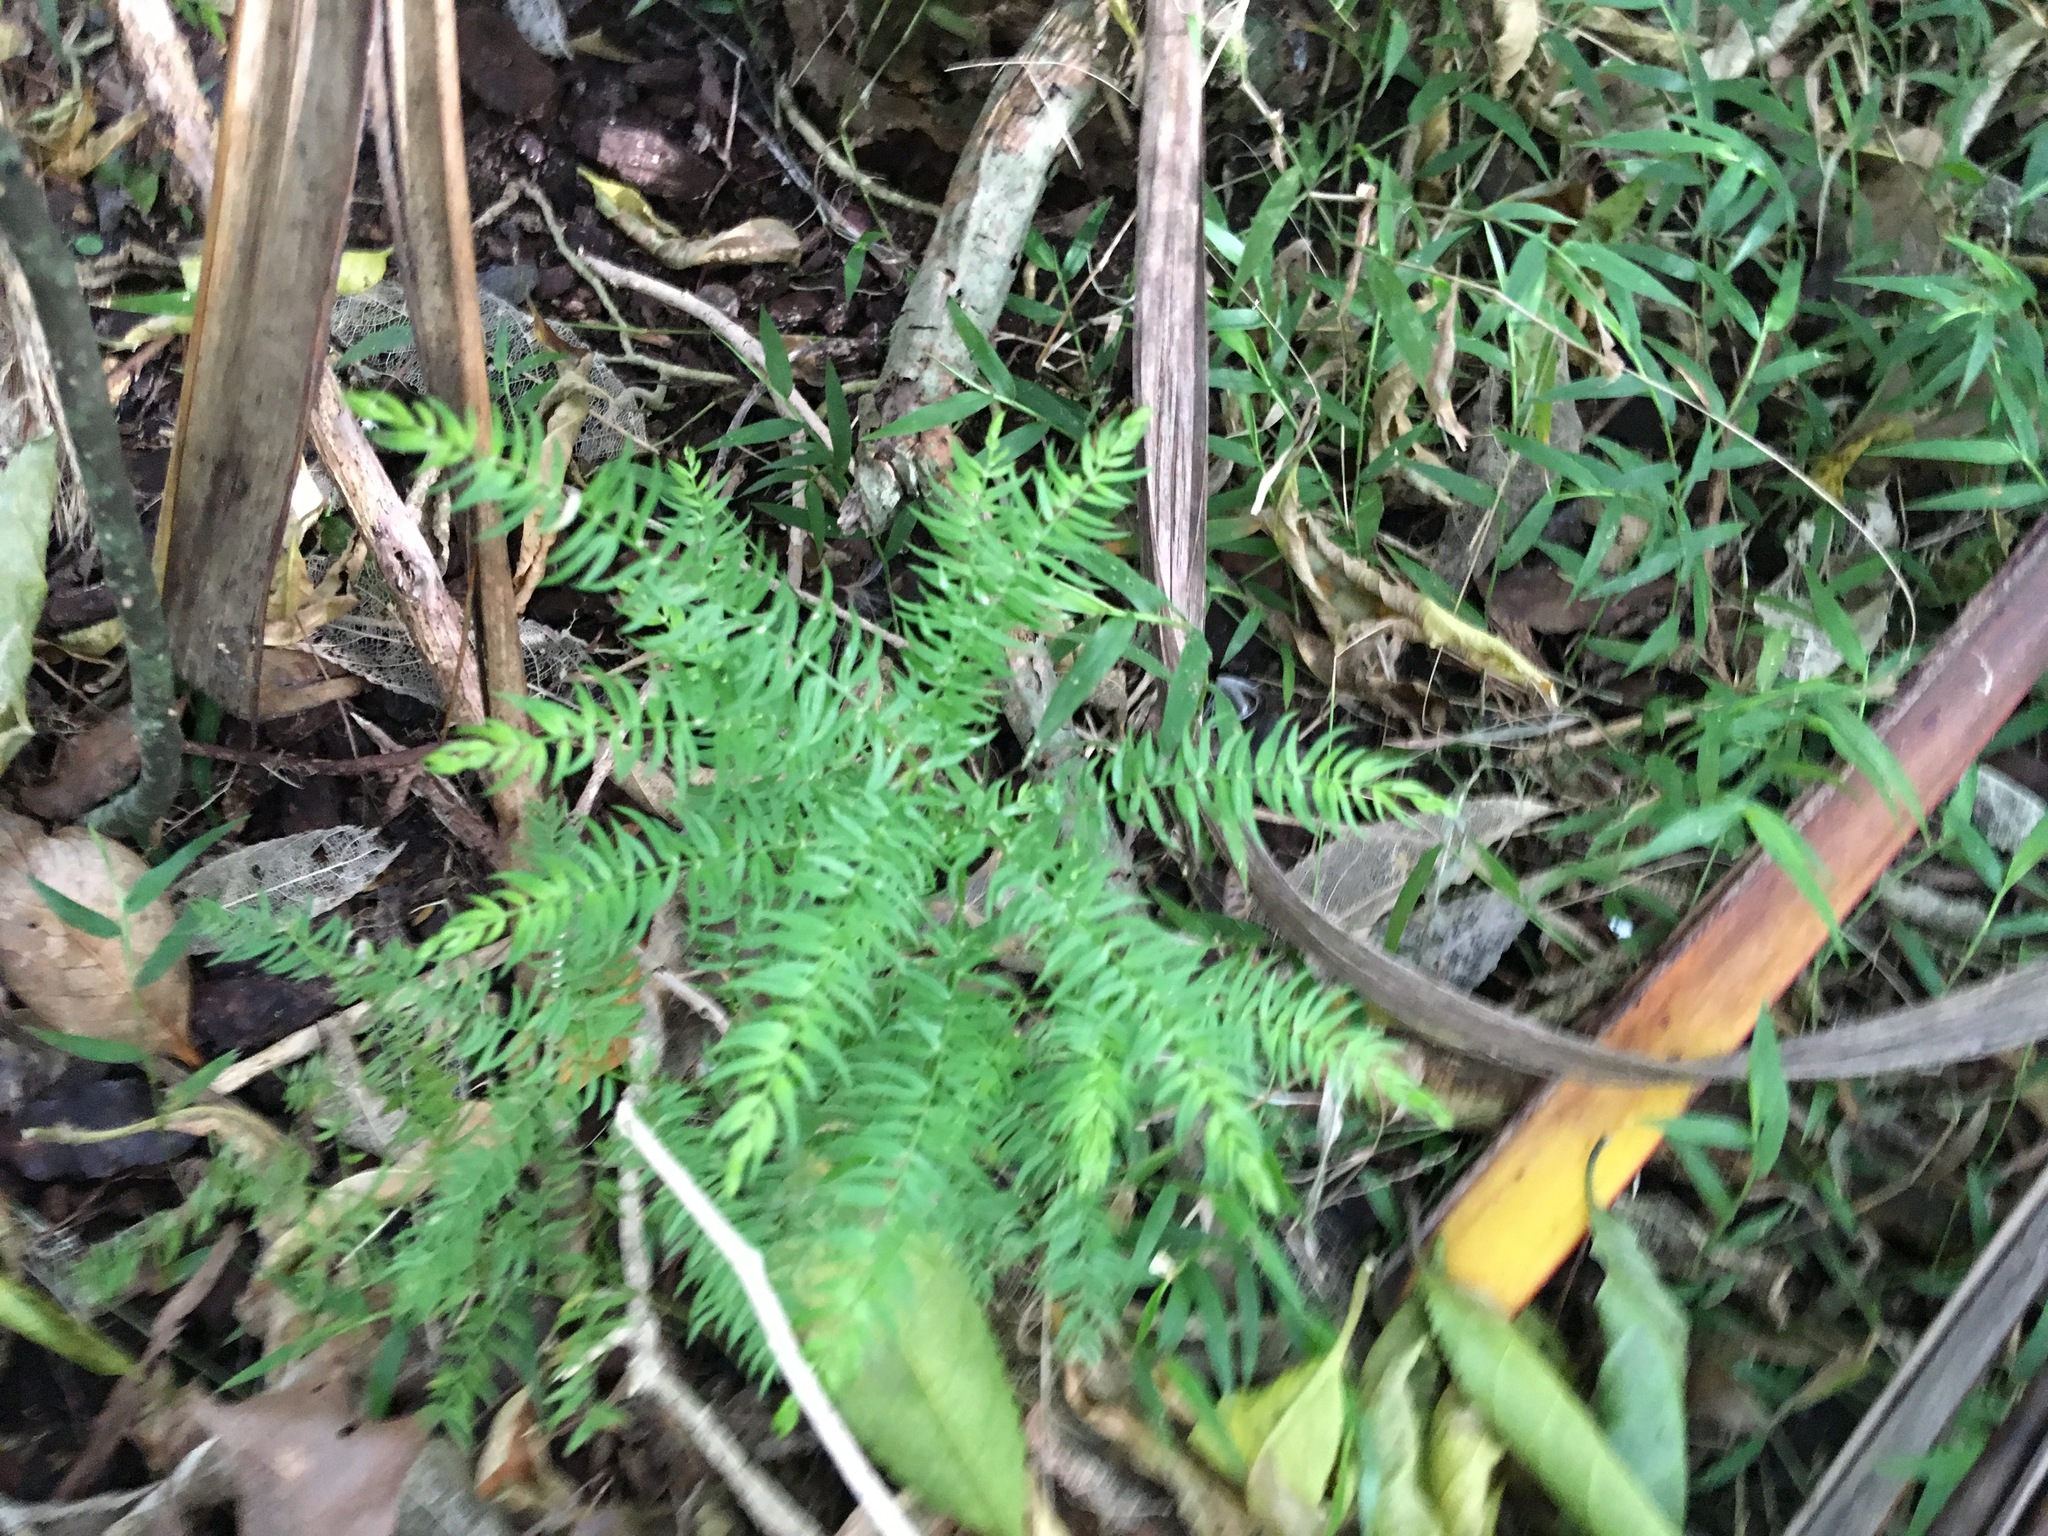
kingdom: Plantae
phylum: Tracheophyta
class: Liliopsida
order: Asparagales
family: Asparagaceae
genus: Asparagus
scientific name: Asparagus scandens
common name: Asparagus-fern
